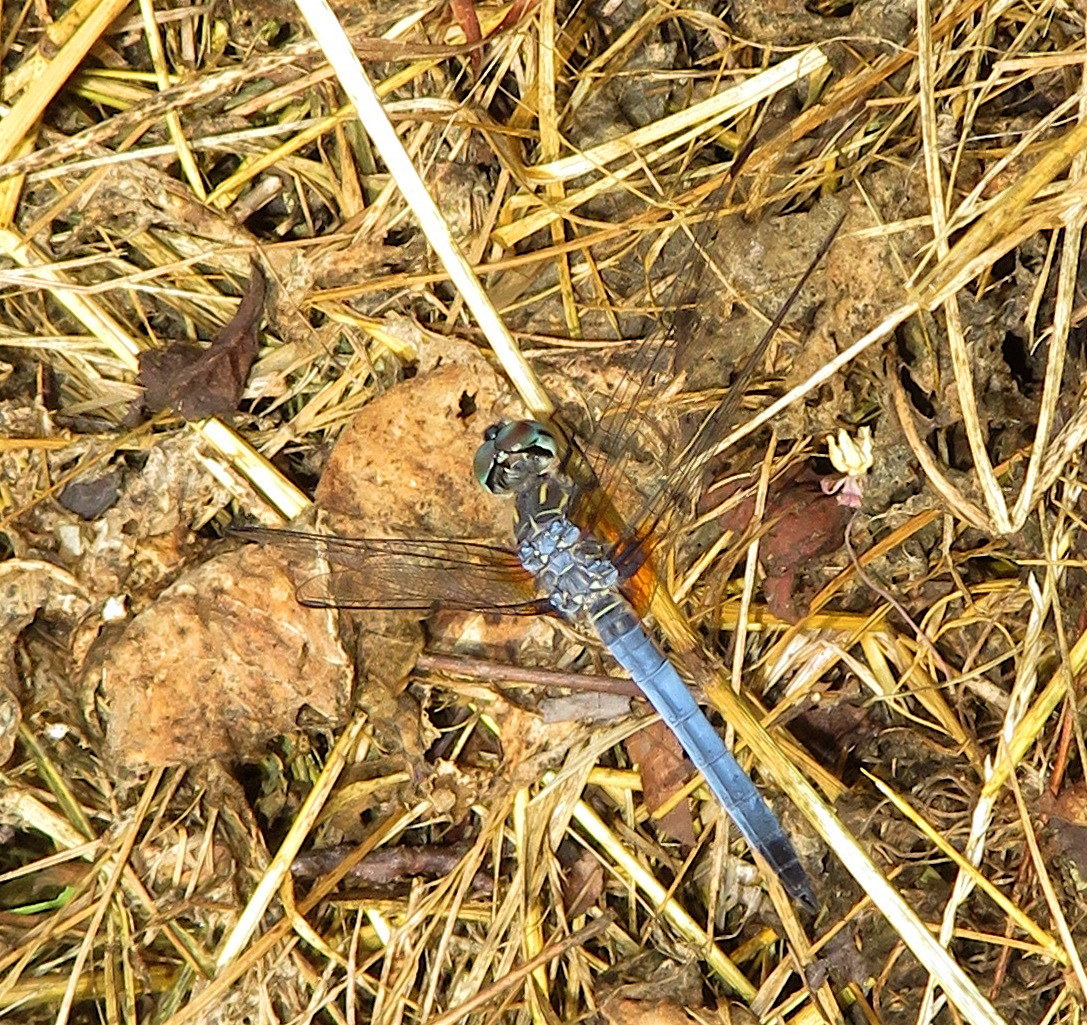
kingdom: Animalia
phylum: Arthropoda
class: Insecta
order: Odonata
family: Libellulidae
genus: Pachydiplax
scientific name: Pachydiplax longipennis
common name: Blue dasher
